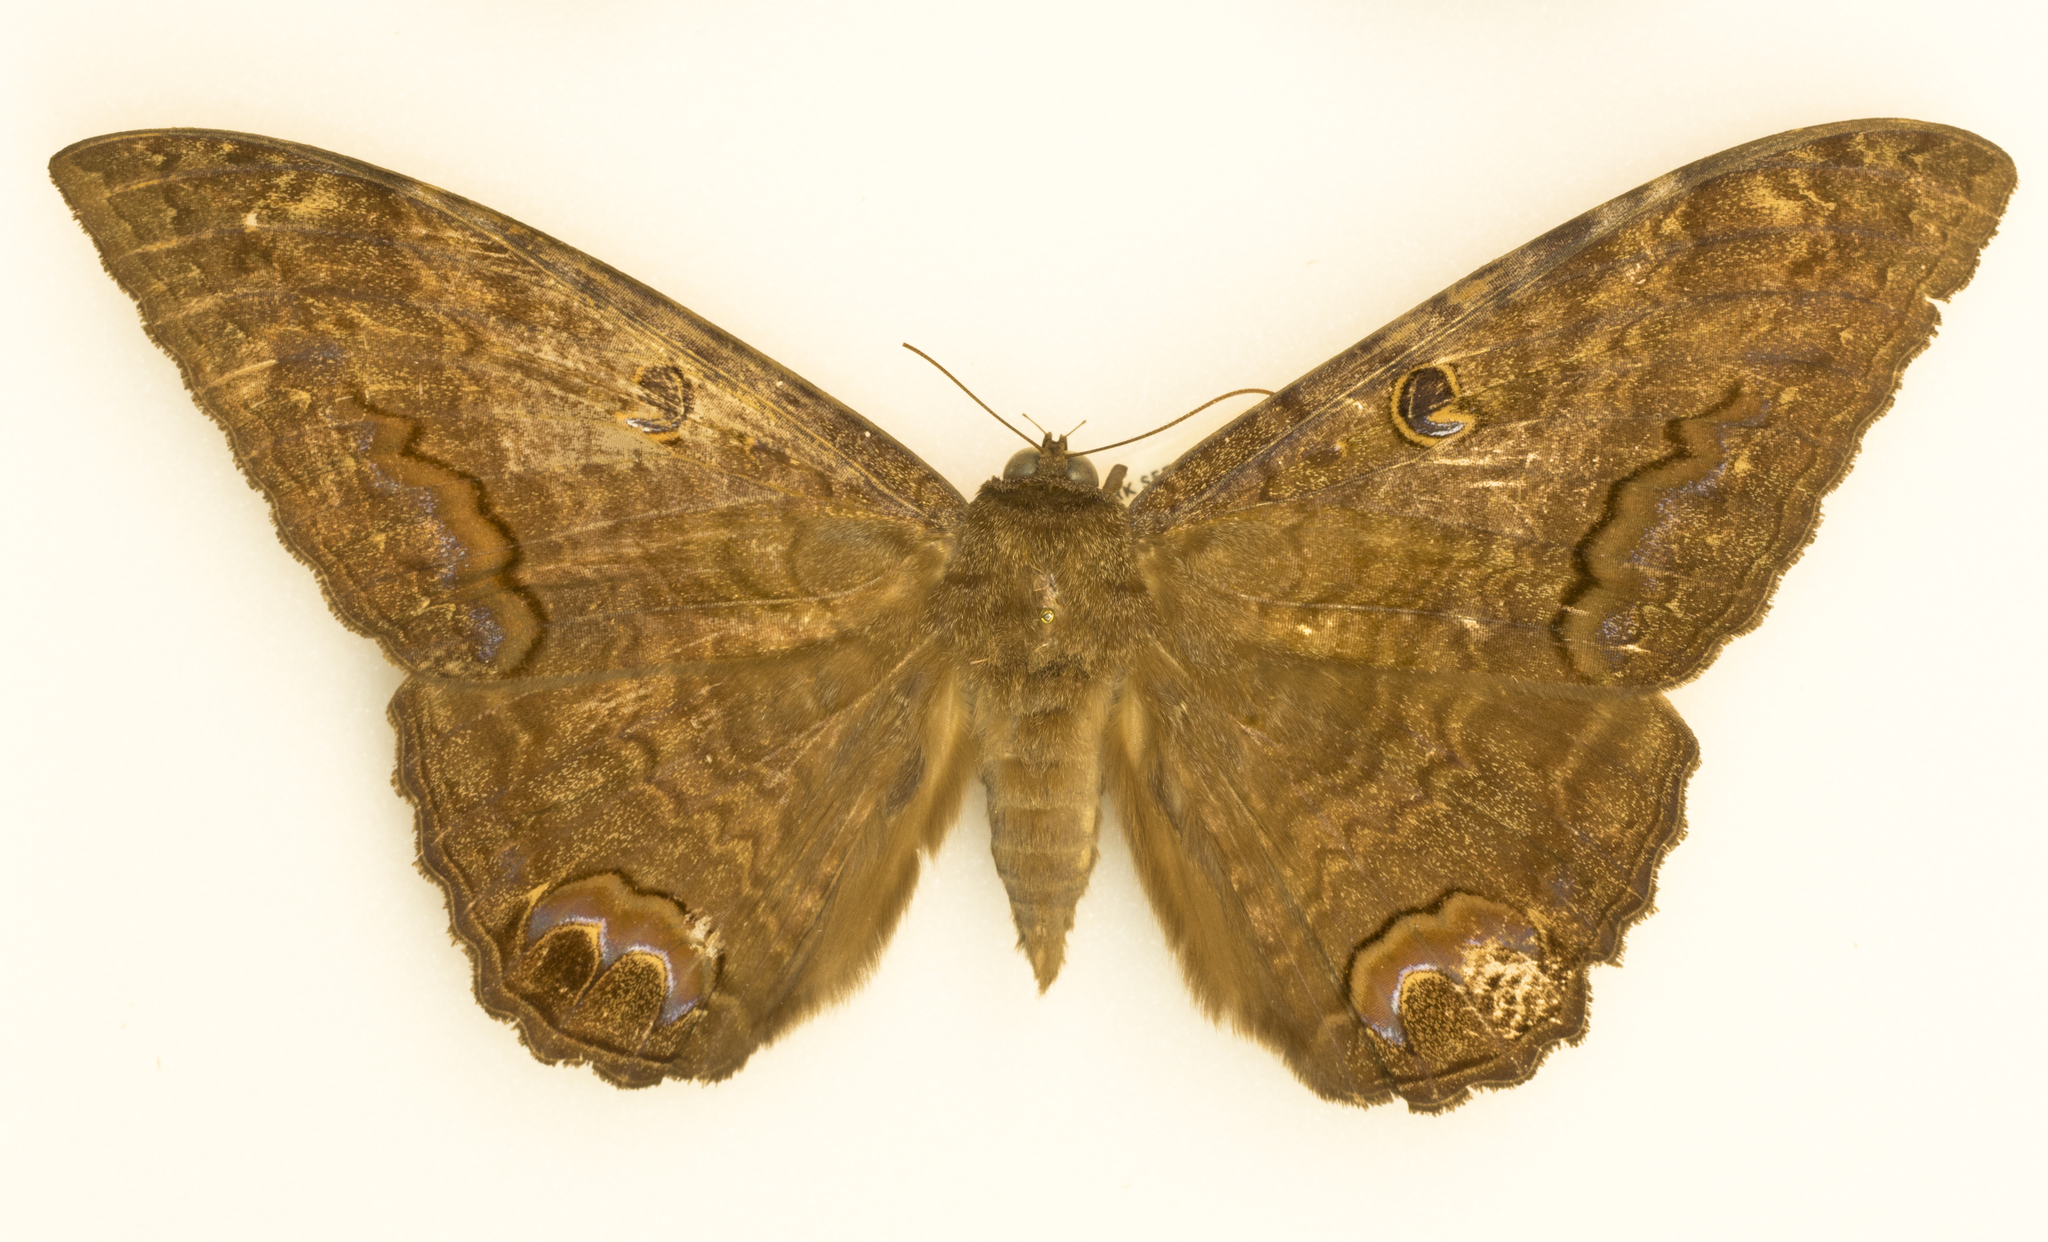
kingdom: Animalia
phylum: Arthropoda
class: Insecta
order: Lepidoptera
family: Erebidae
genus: Ascalapha
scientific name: Ascalapha odorata
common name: Black witch
